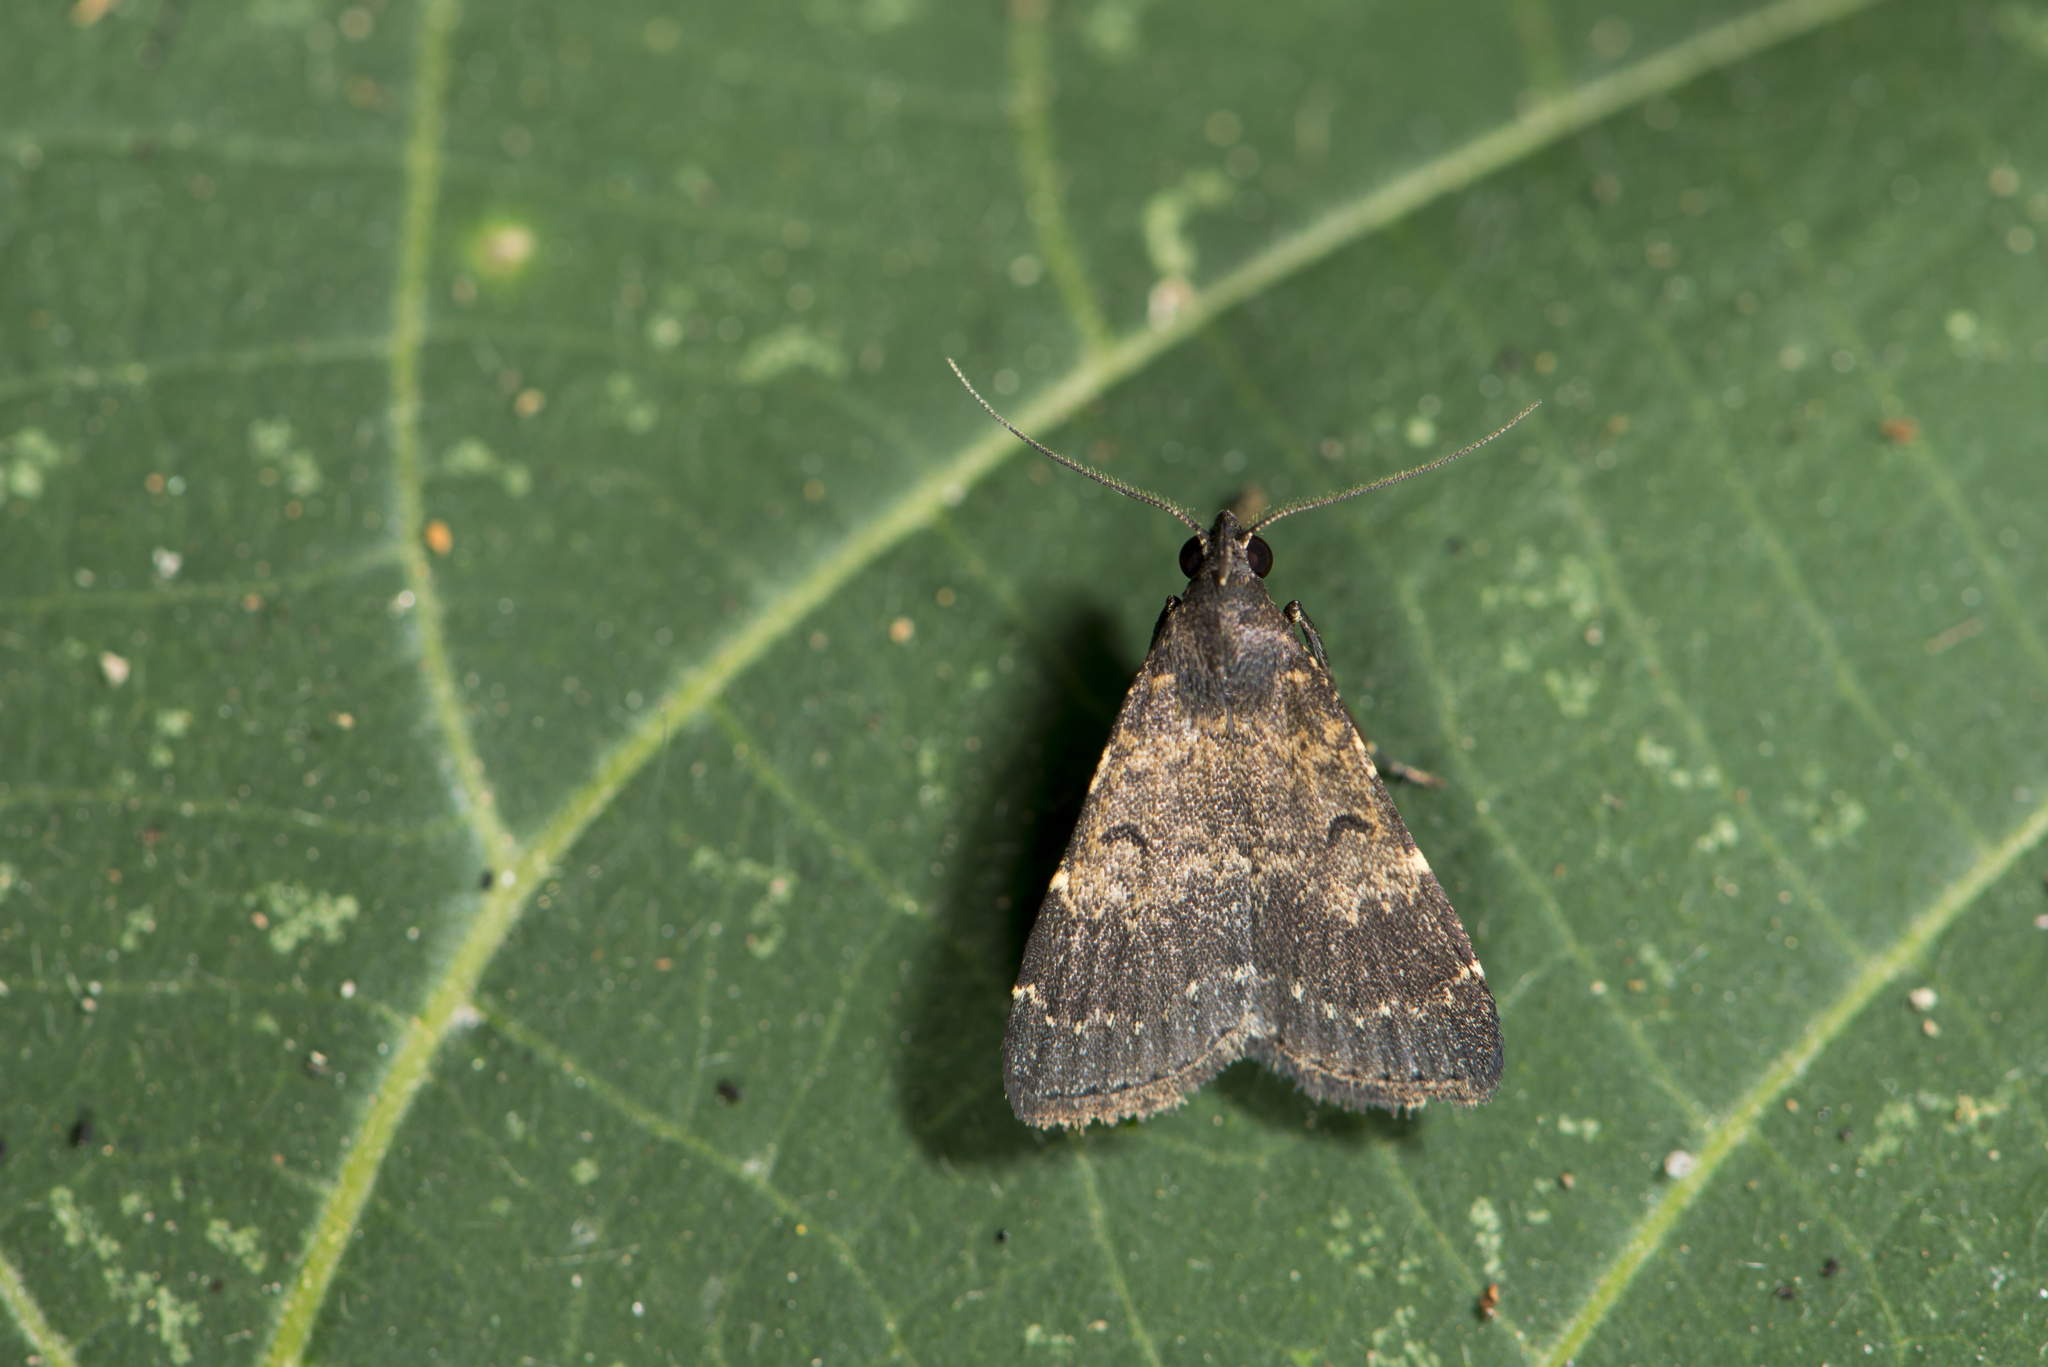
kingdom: Animalia
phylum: Arthropoda
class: Insecta
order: Lepidoptera
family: Erebidae
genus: Hydrillodes
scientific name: Hydrillodes lentalis
